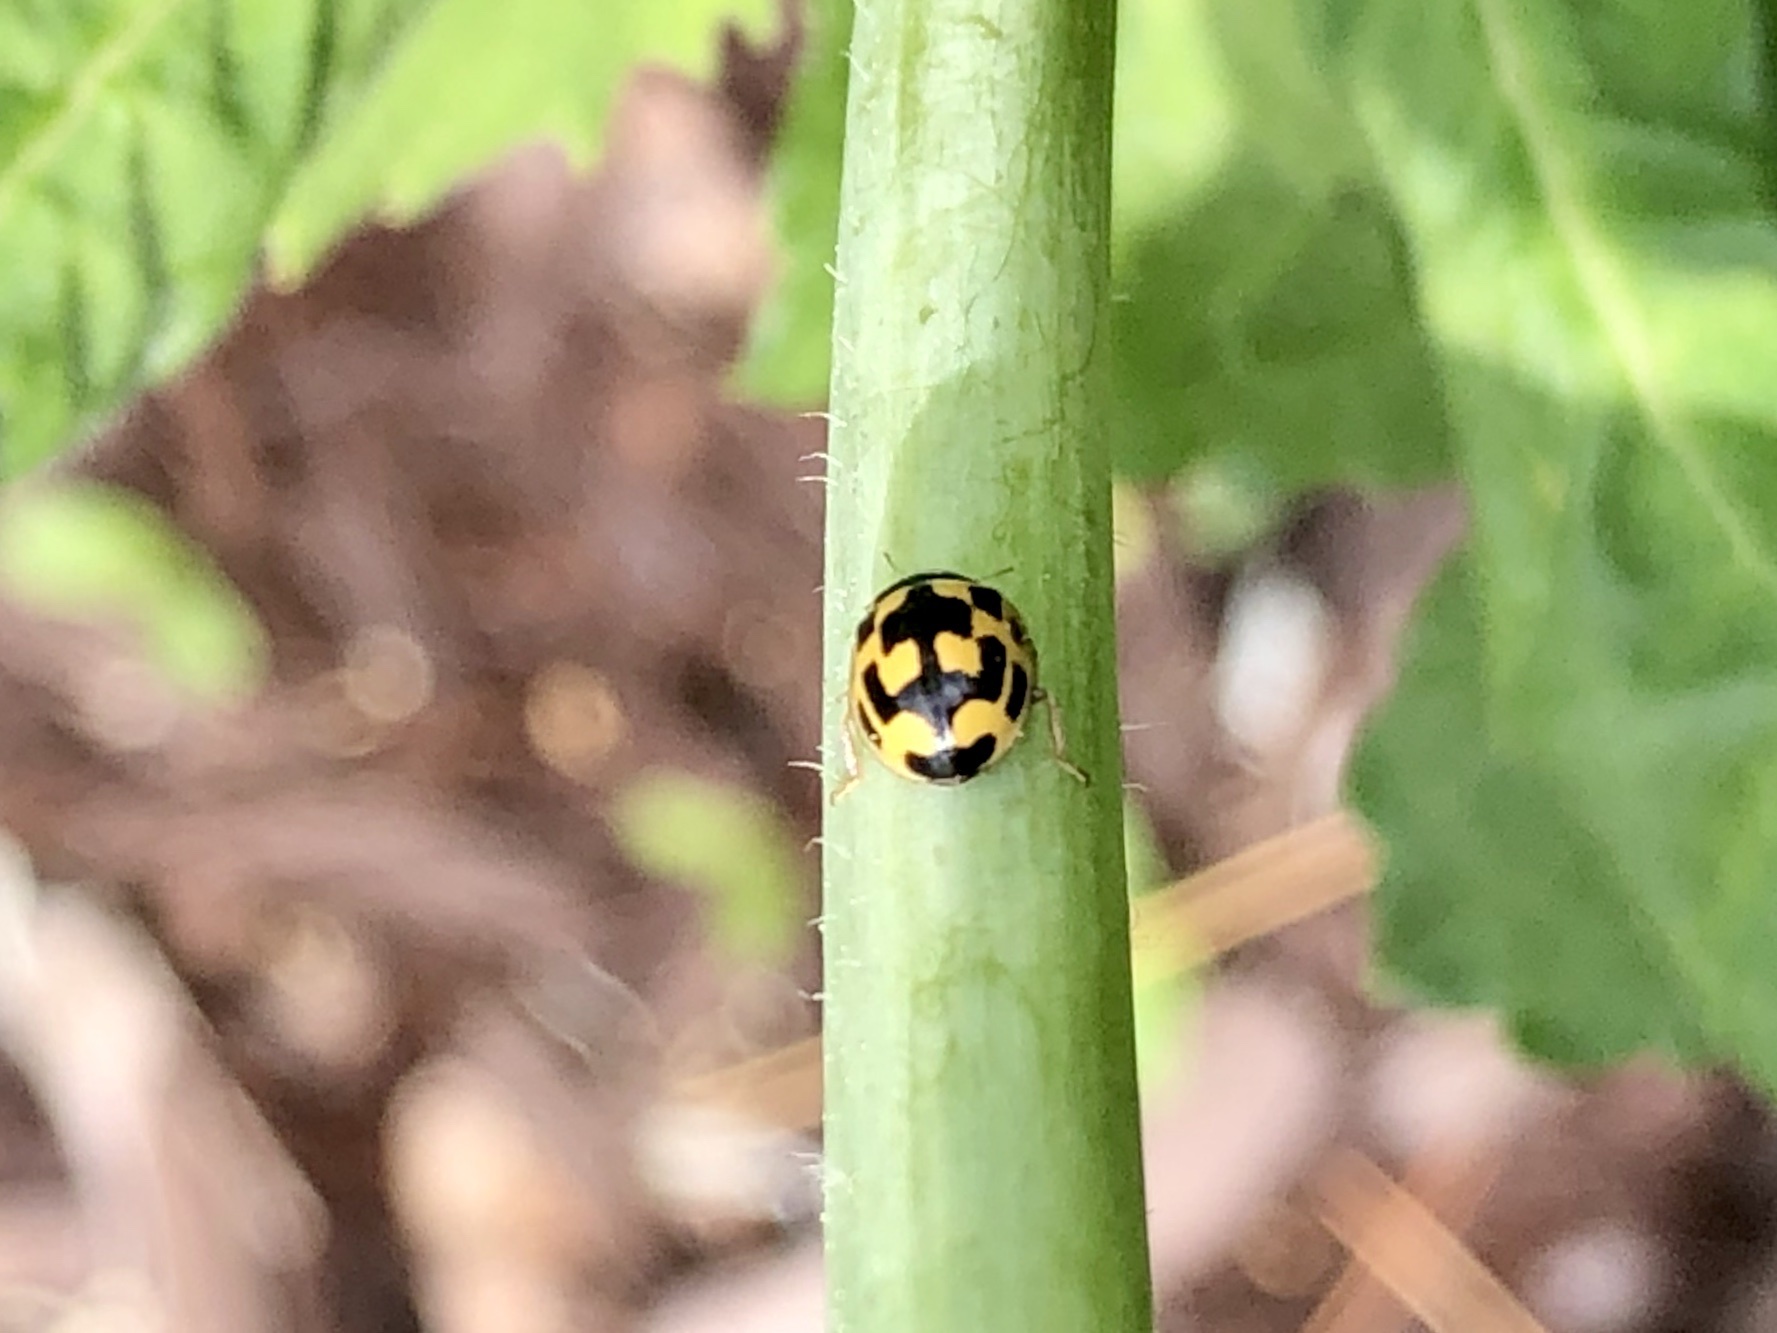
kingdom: Animalia
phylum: Arthropoda
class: Insecta
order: Coleoptera
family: Coccinellidae
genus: Propylaea
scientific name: Propylaea quatuordecimpunctata
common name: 14-spotted ladybird beetle
